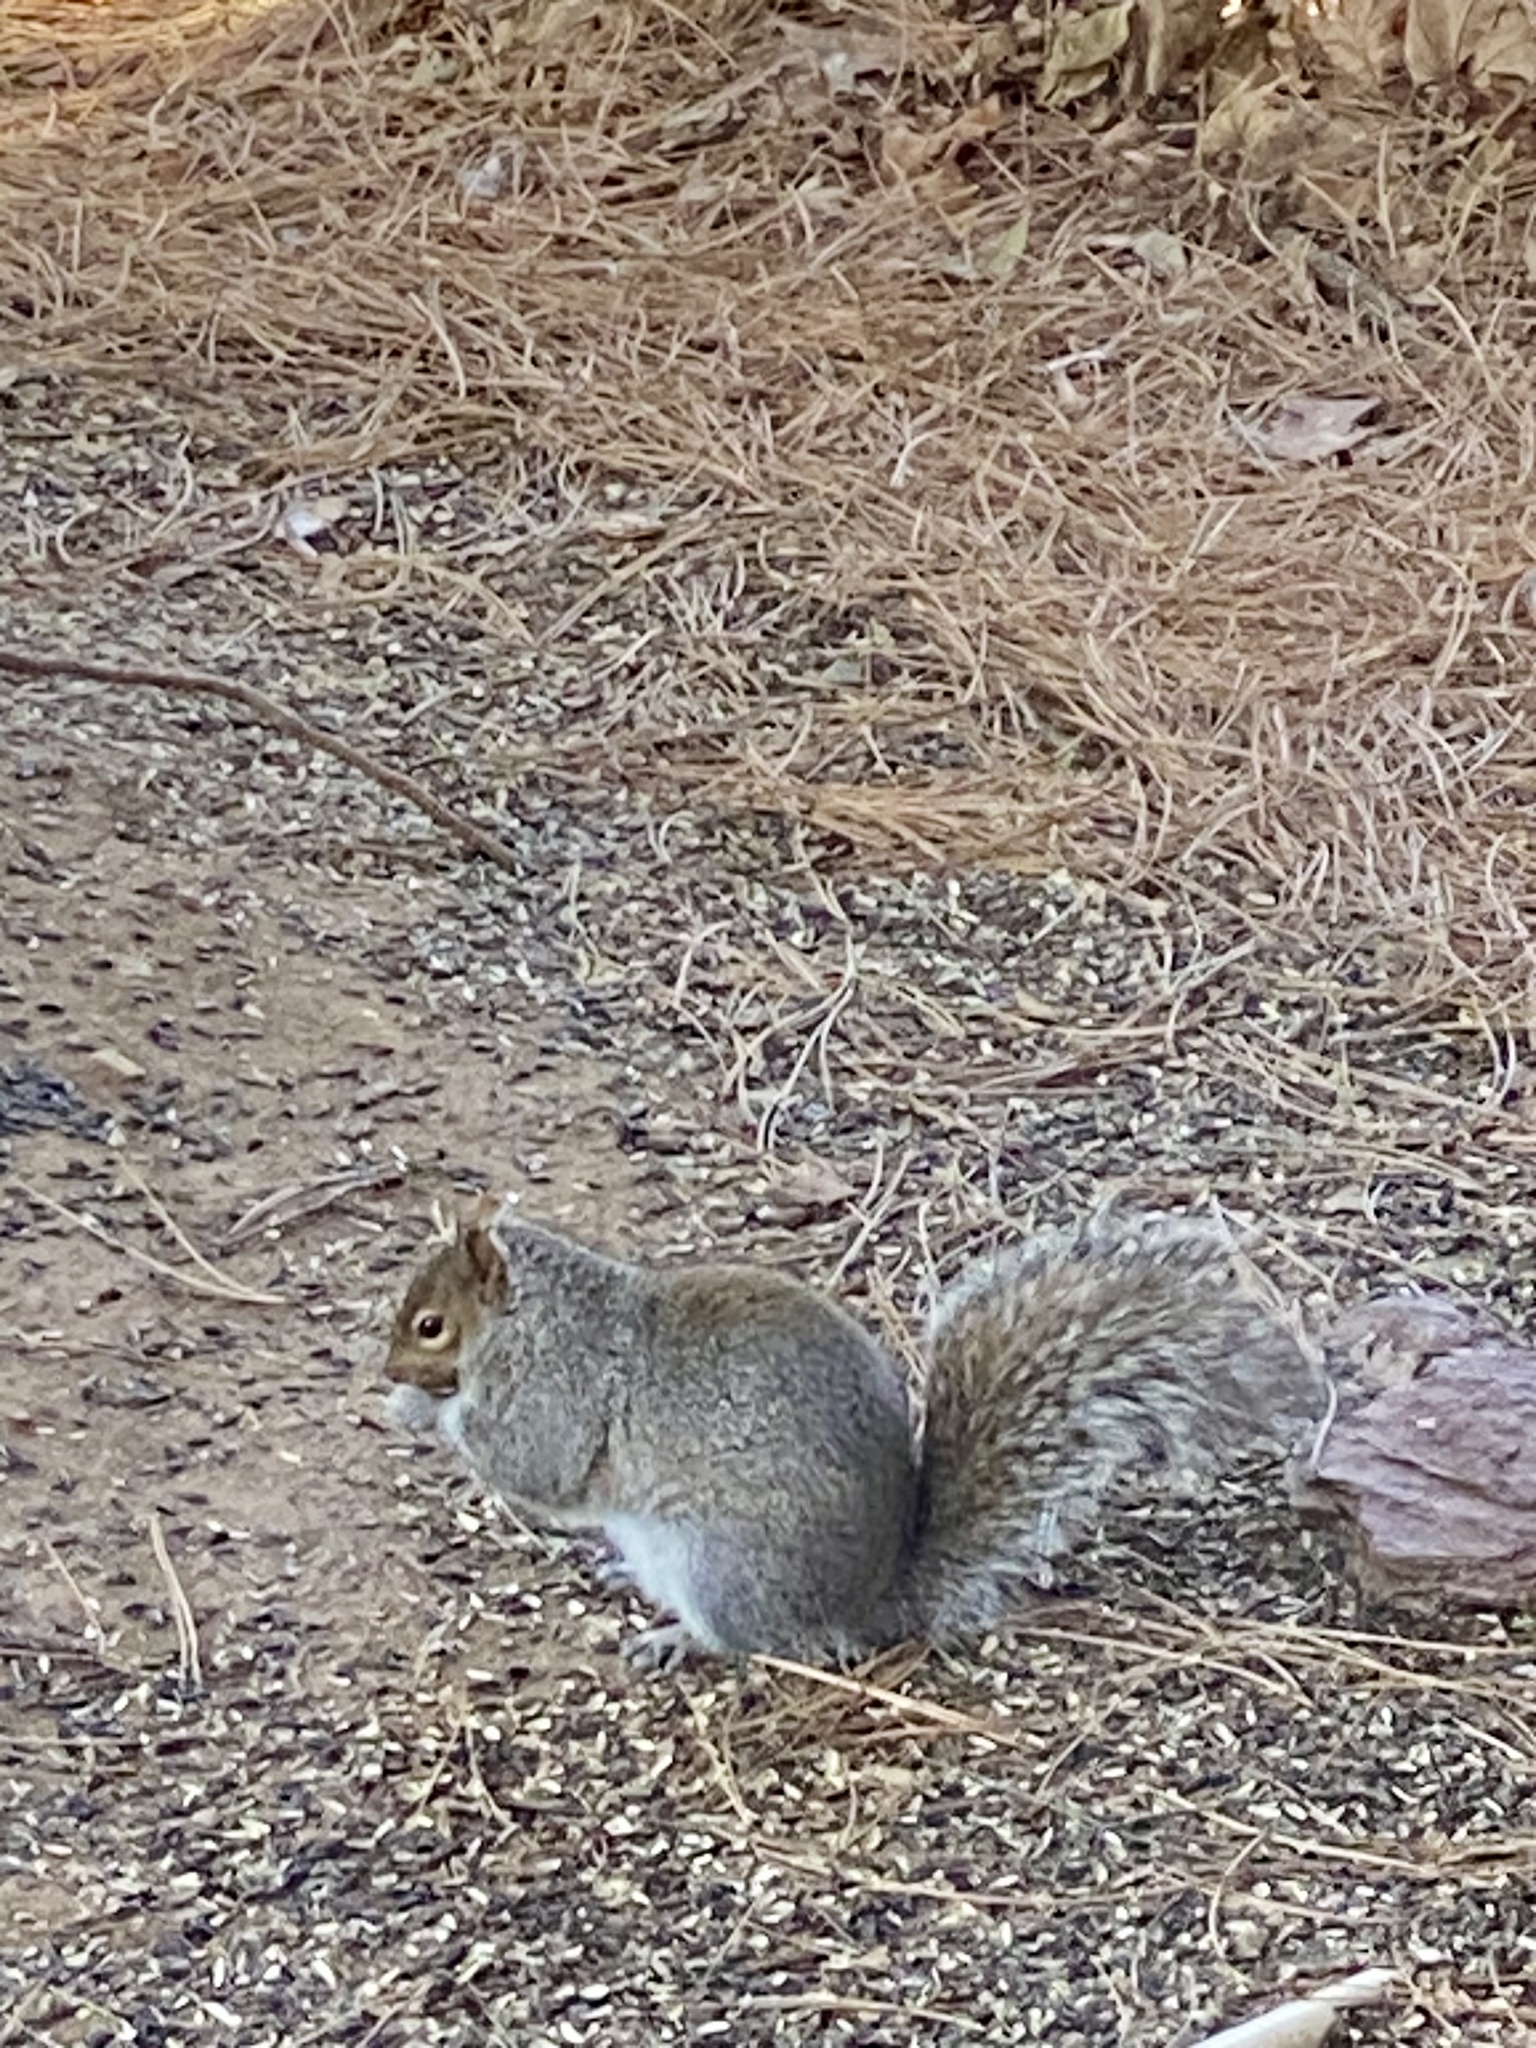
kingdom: Animalia
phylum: Chordata
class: Mammalia
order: Rodentia
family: Sciuridae
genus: Sciurus
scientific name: Sciurus carolinensis
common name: Eastern gray squirrel
